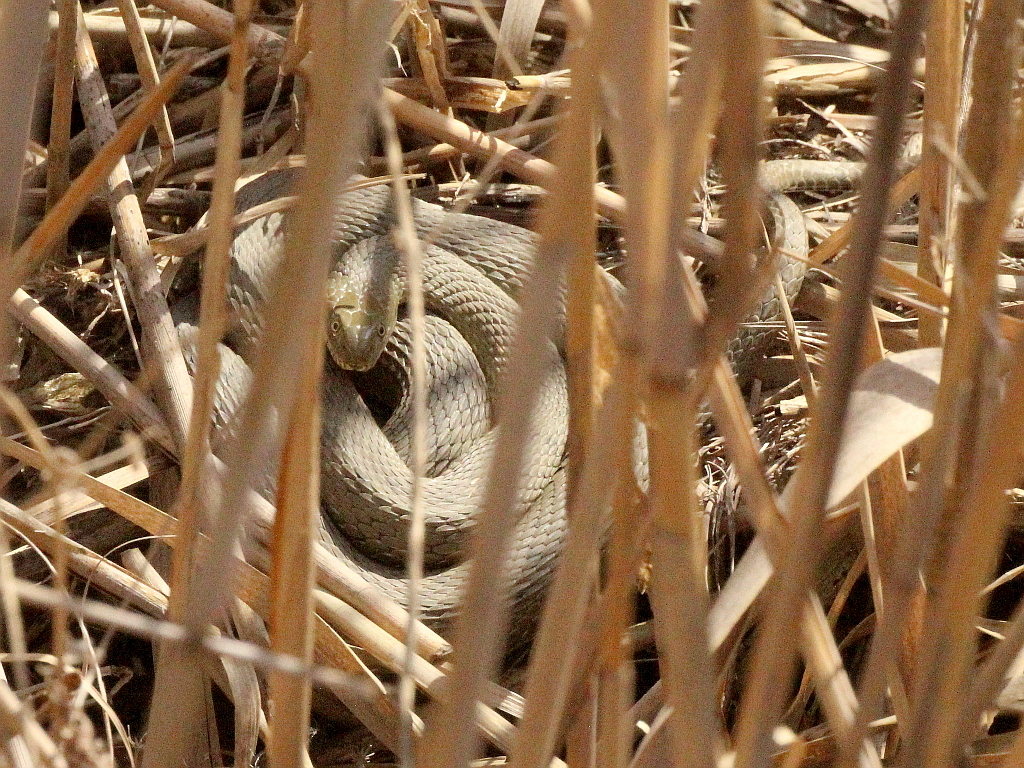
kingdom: Animalia
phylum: Chordata
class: Squamata
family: Colubridae
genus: Natrix
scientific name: Natrix tessellata
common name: Dice snake
